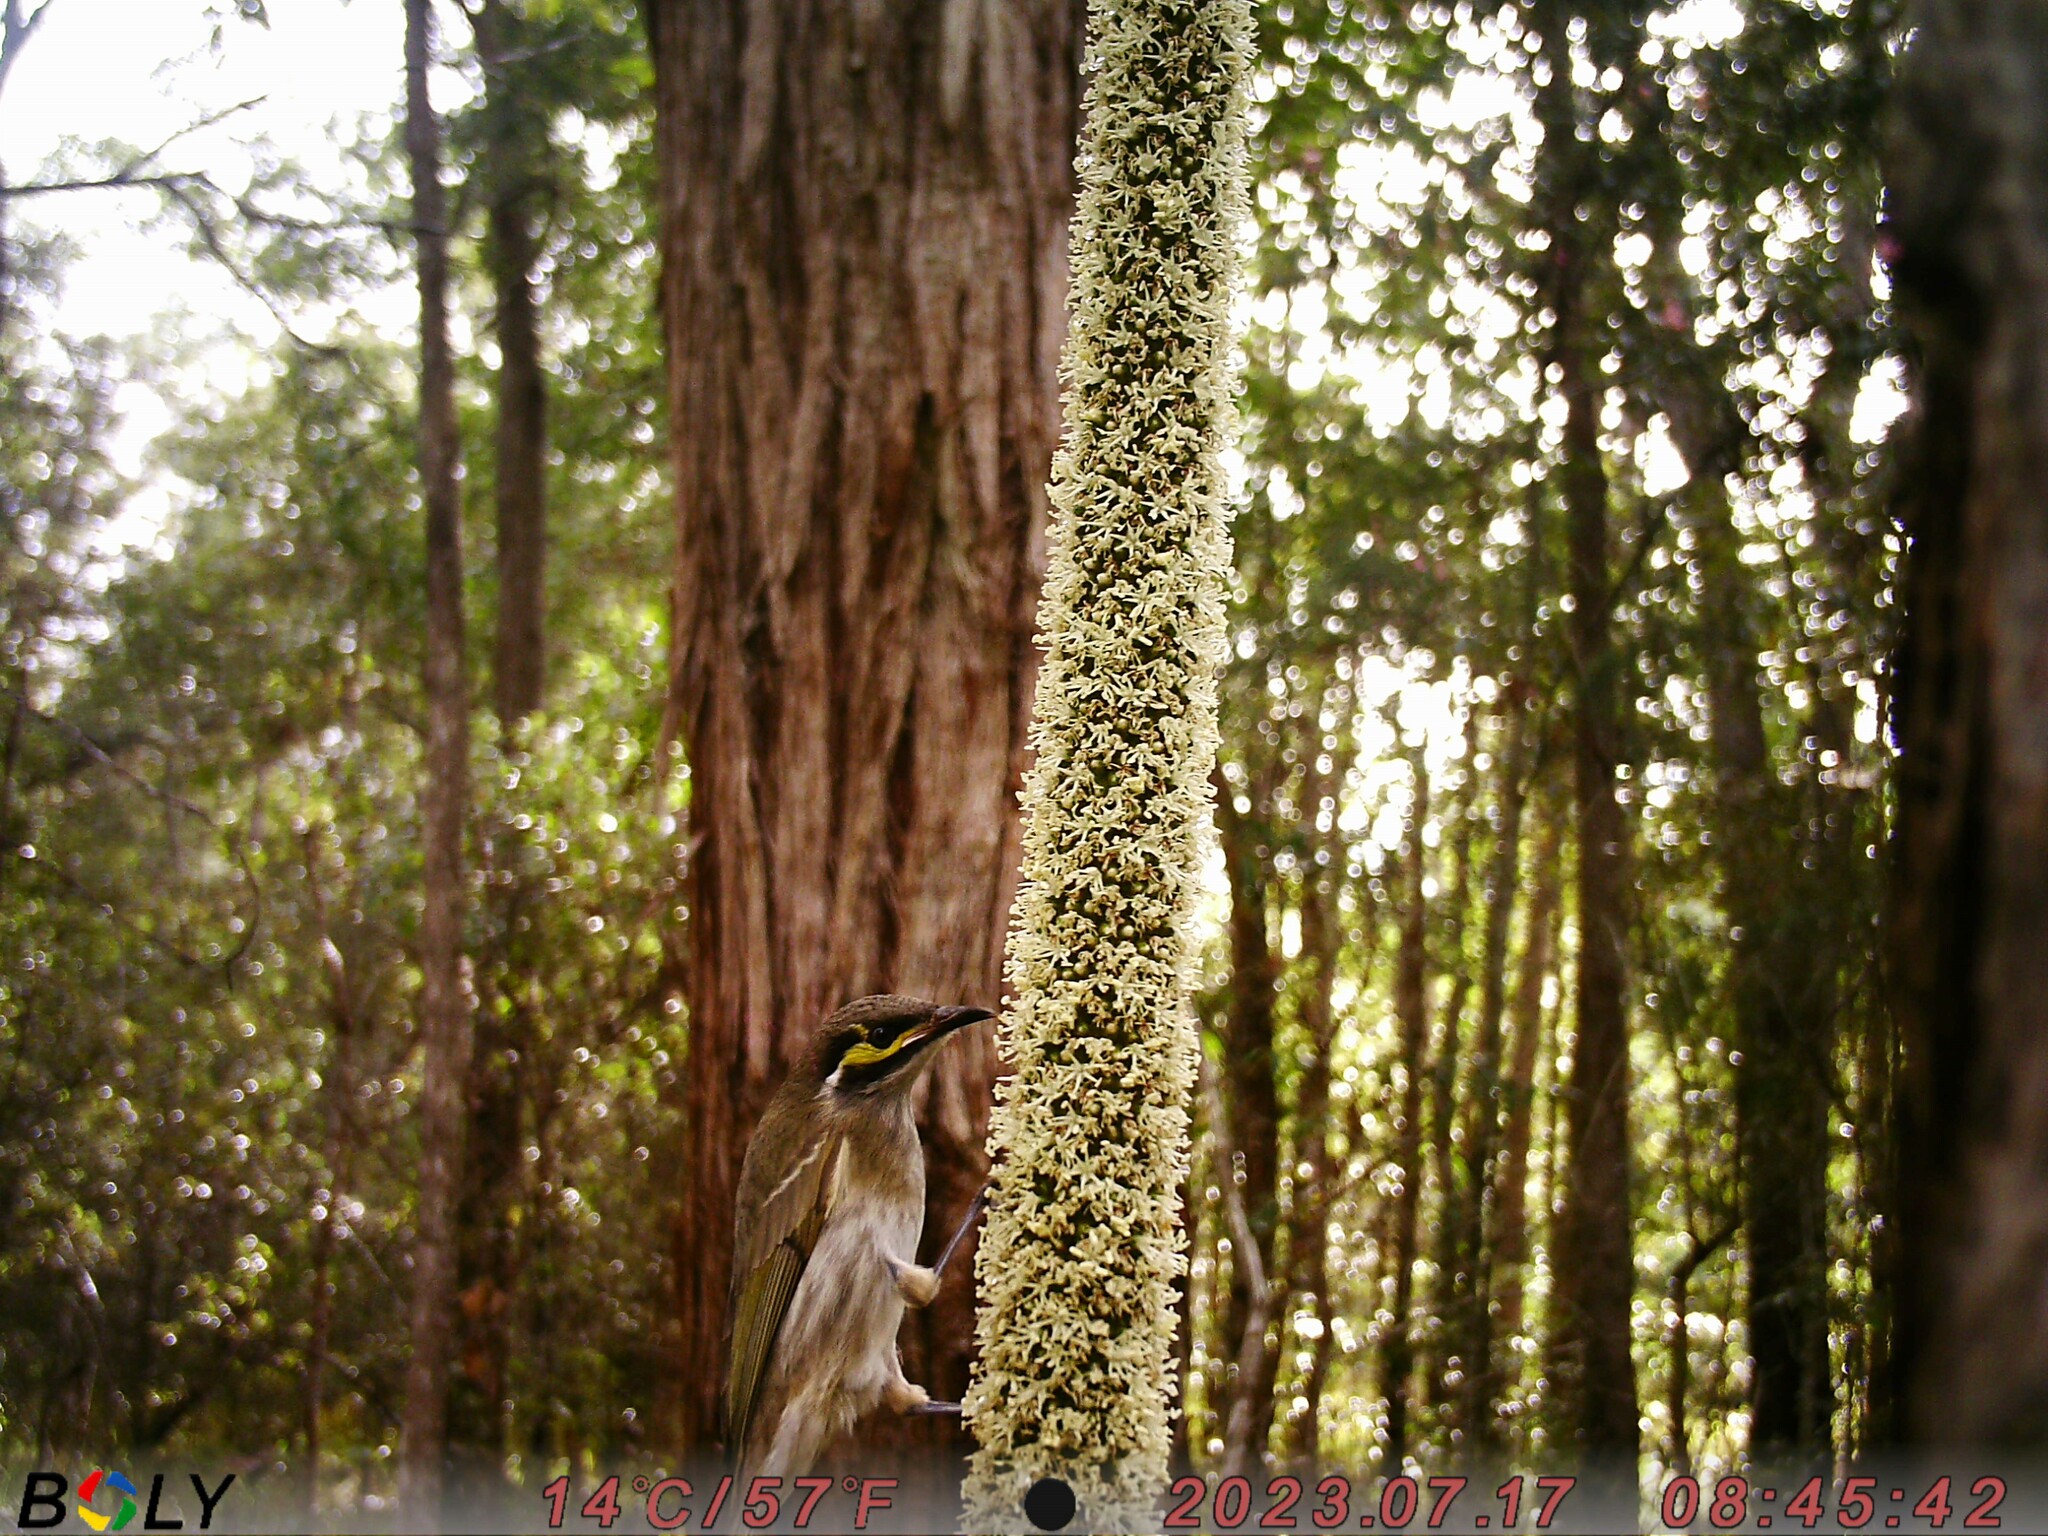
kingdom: Animalia
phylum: Chordata
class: Aves
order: Passeriformes
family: Meliphagidae
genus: Caligavis
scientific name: Caligavis chrysops
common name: Yellow-faced honeyeater
